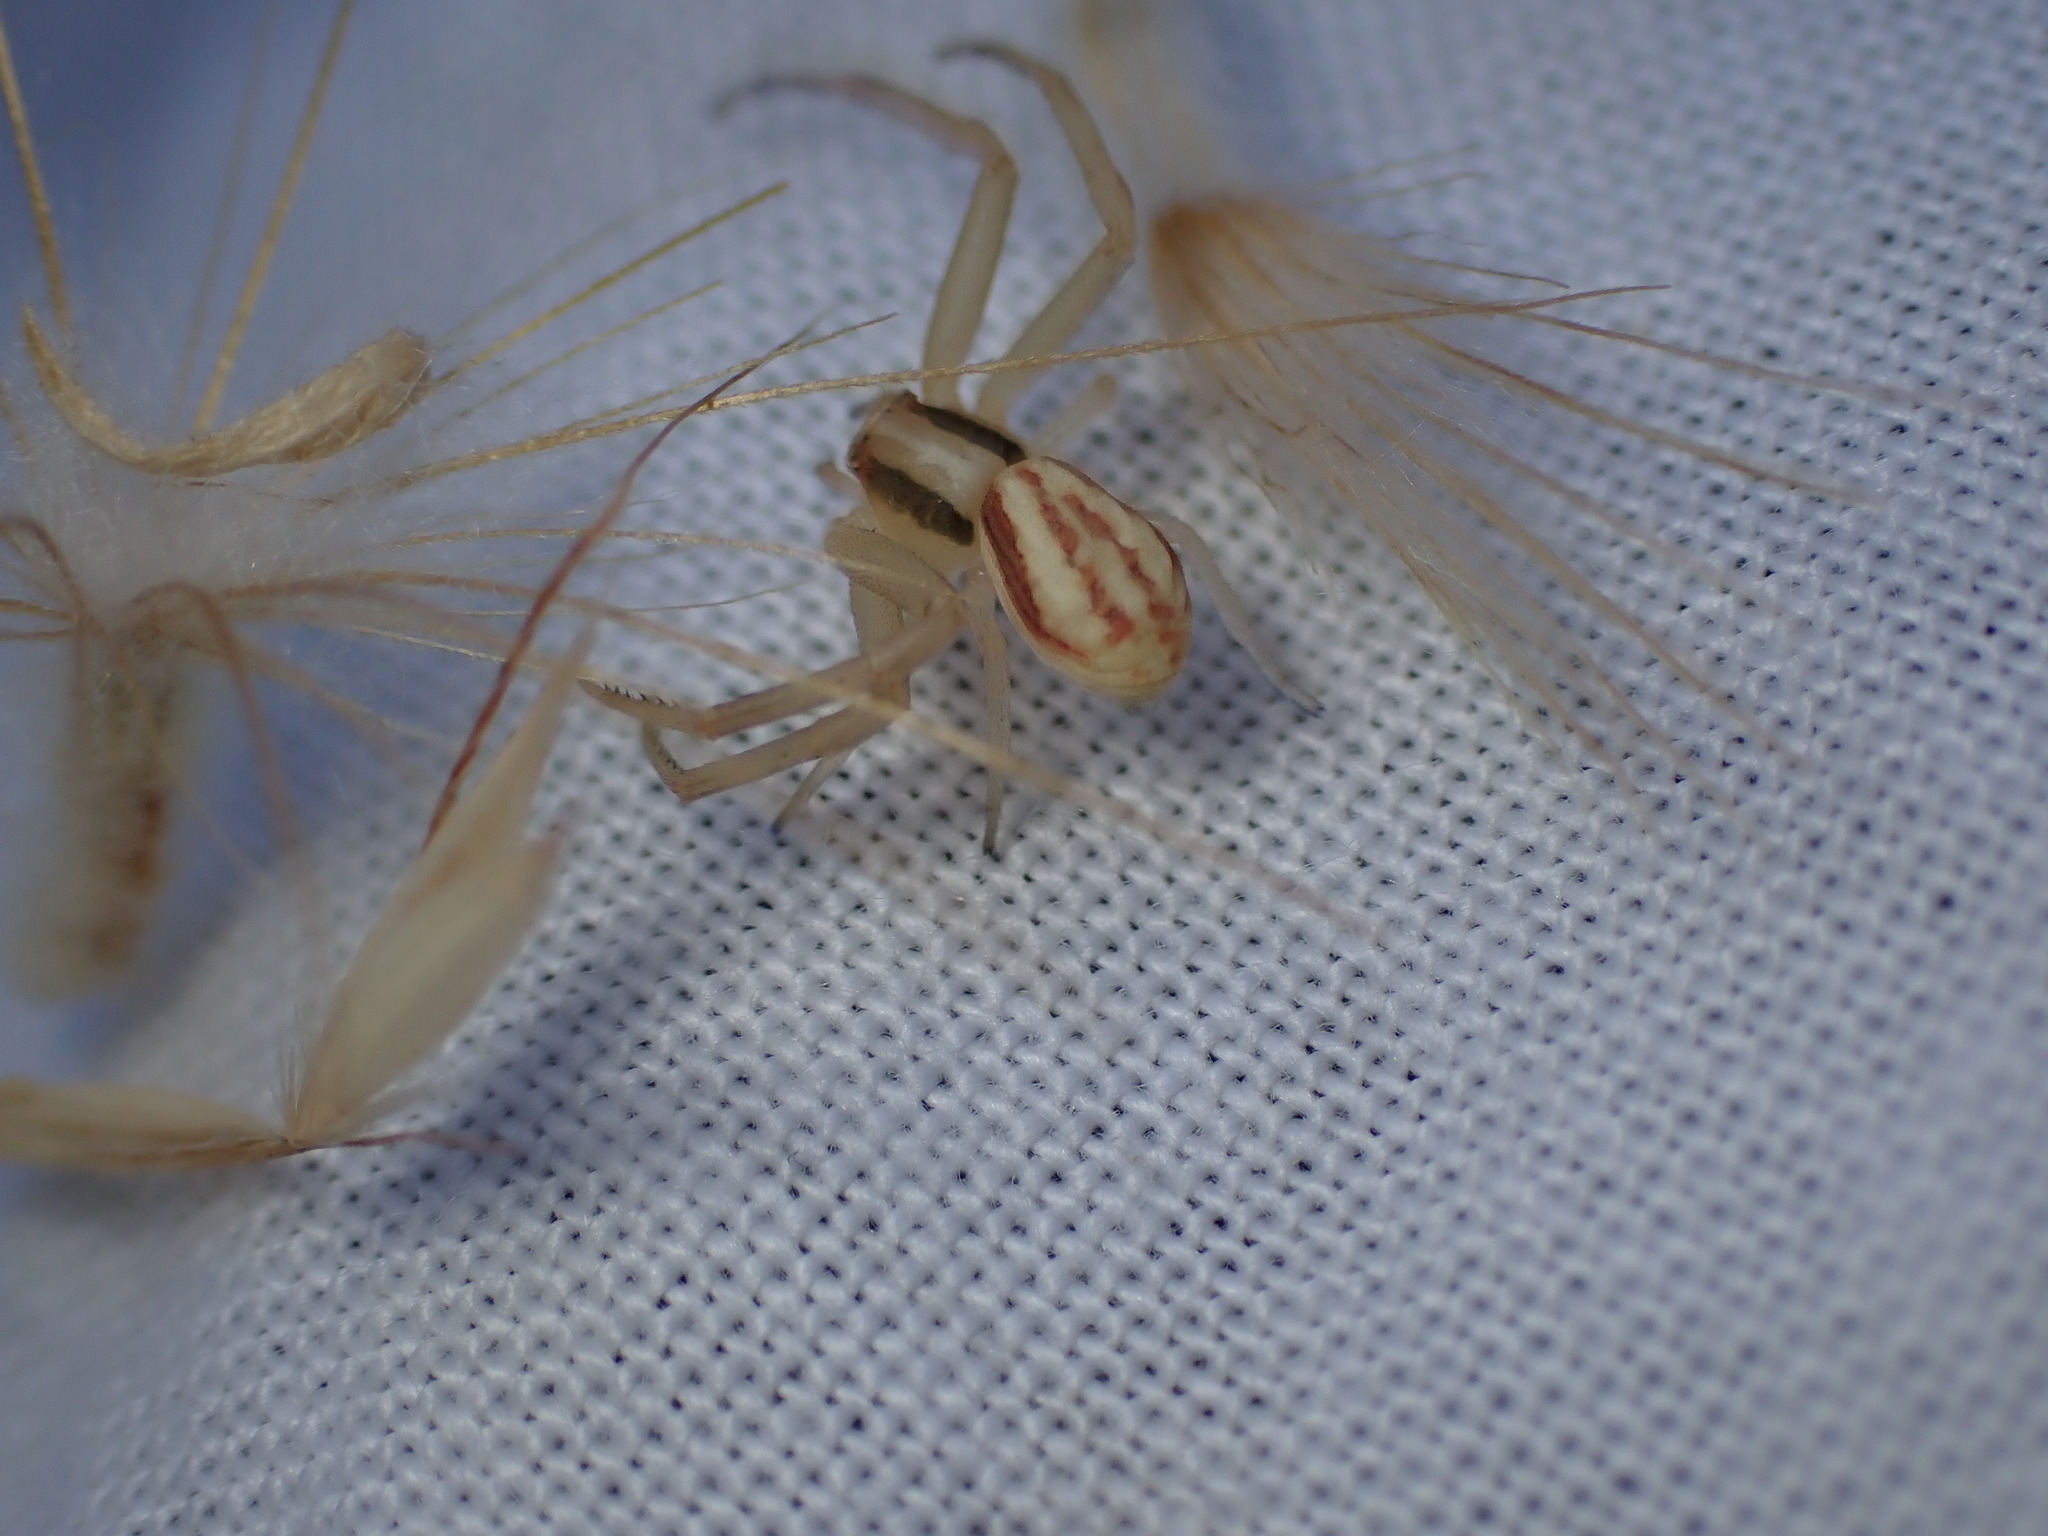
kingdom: Animalia
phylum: Arthropoda
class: Arachnida
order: Araneae
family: Thomisidae
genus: Runcinia
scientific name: Runcinia grammica
